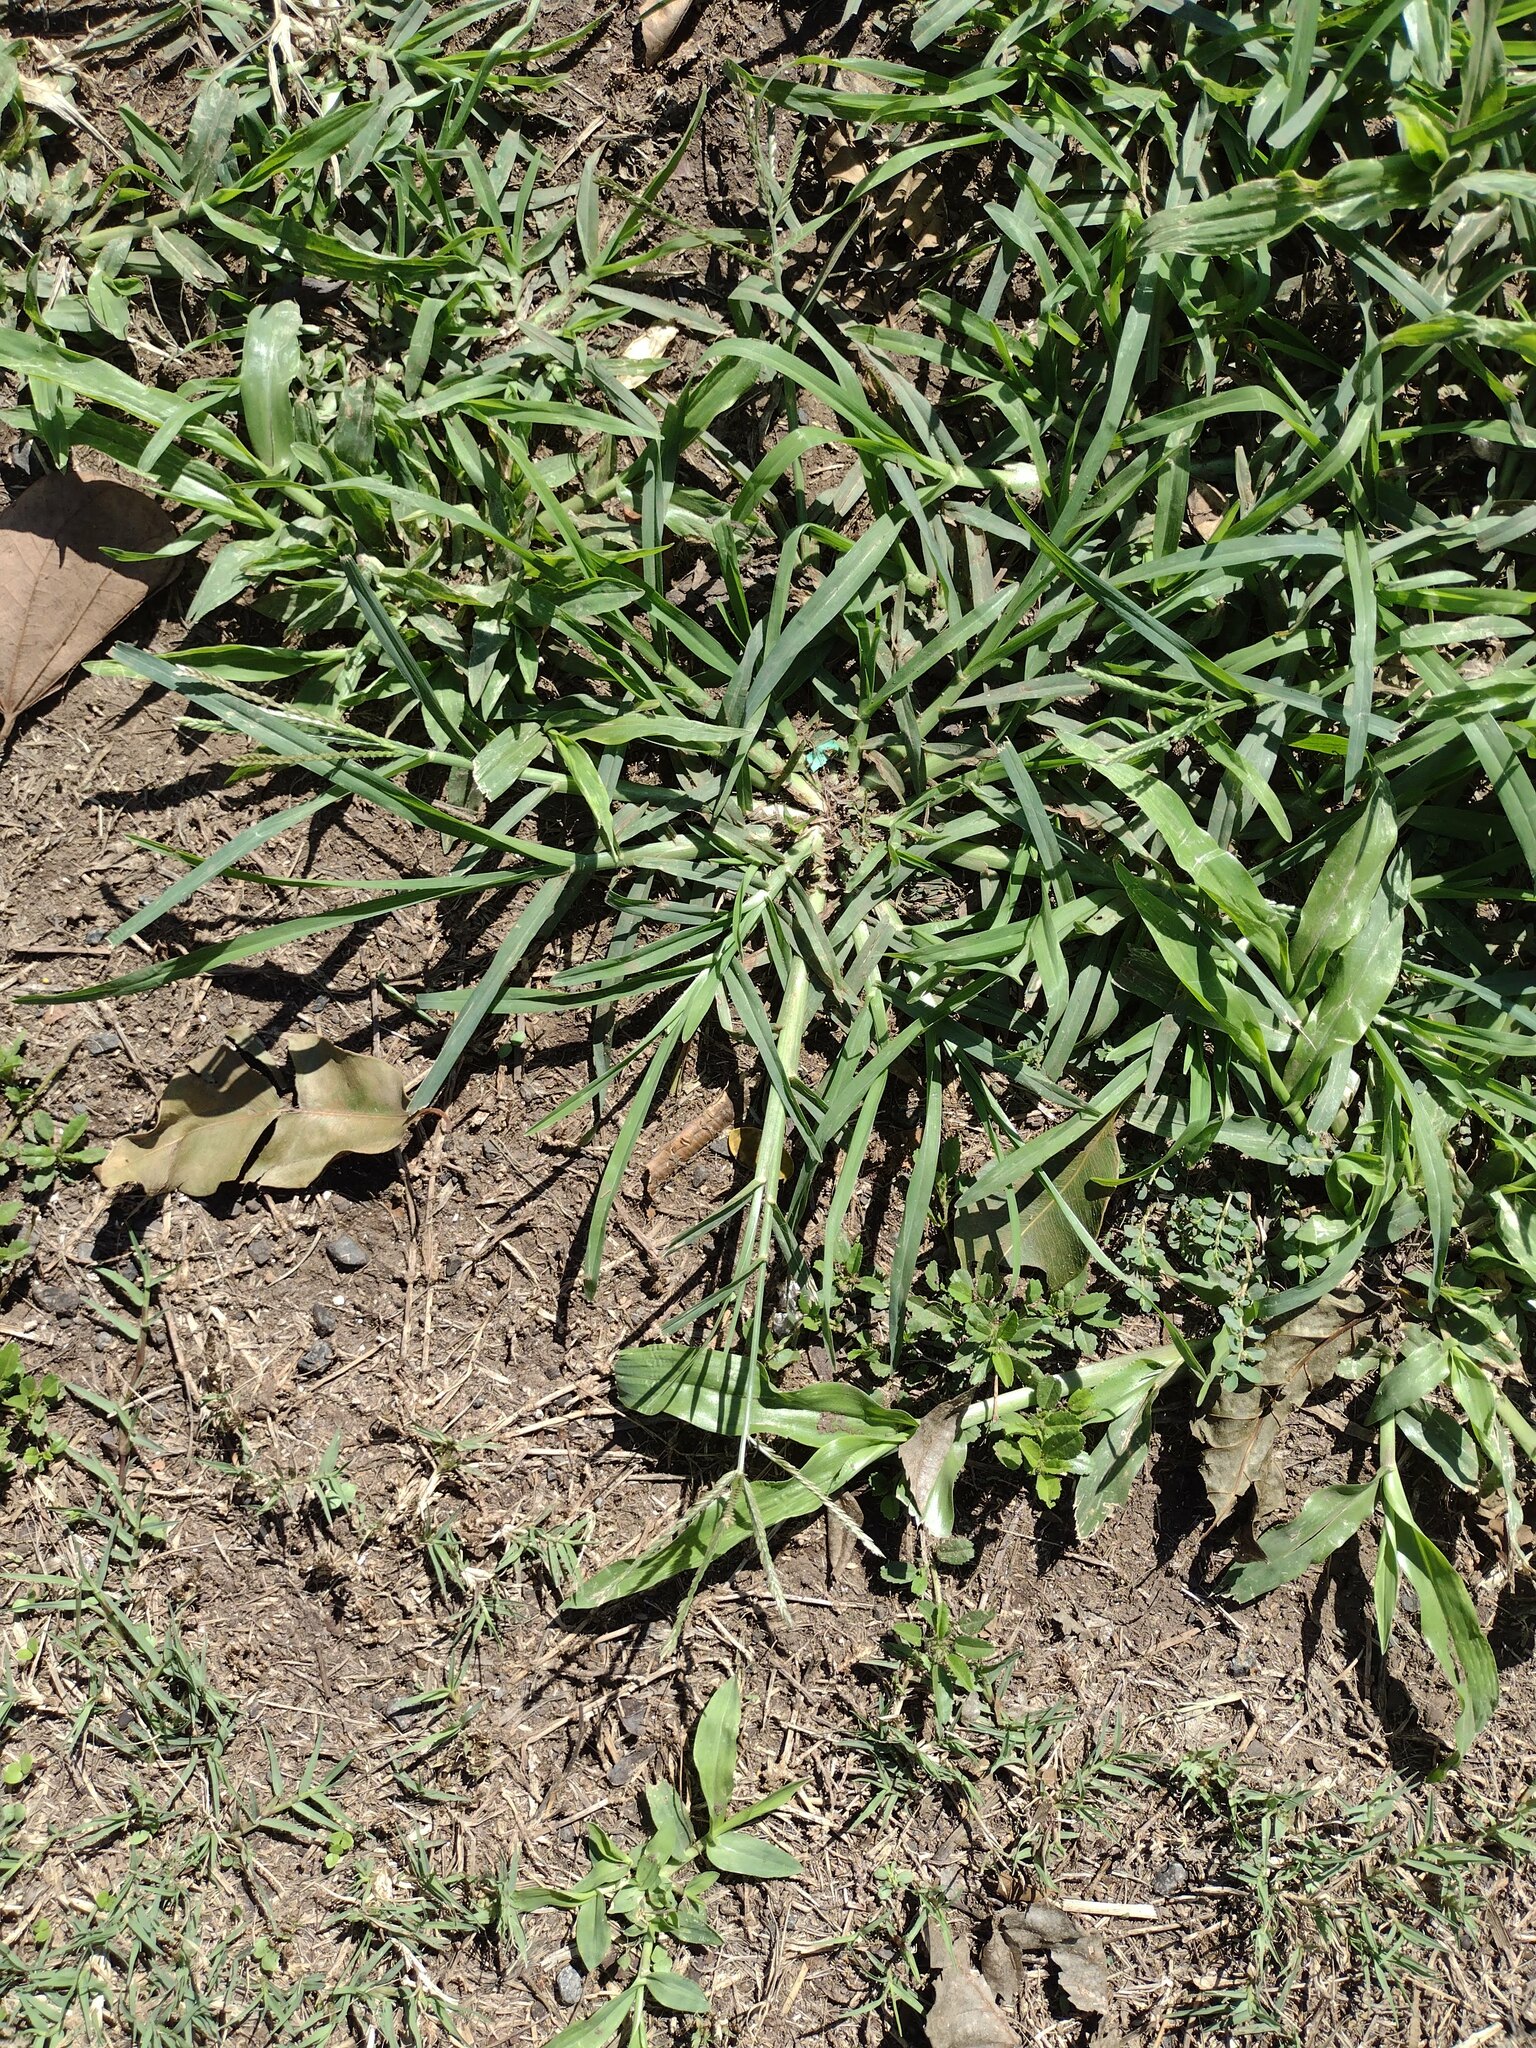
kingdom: Plantae
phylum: Tracheophyta
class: Liliopsida
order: Poales
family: Poaceae
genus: Eleusine
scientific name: Eleusine indica
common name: Yard-grass
